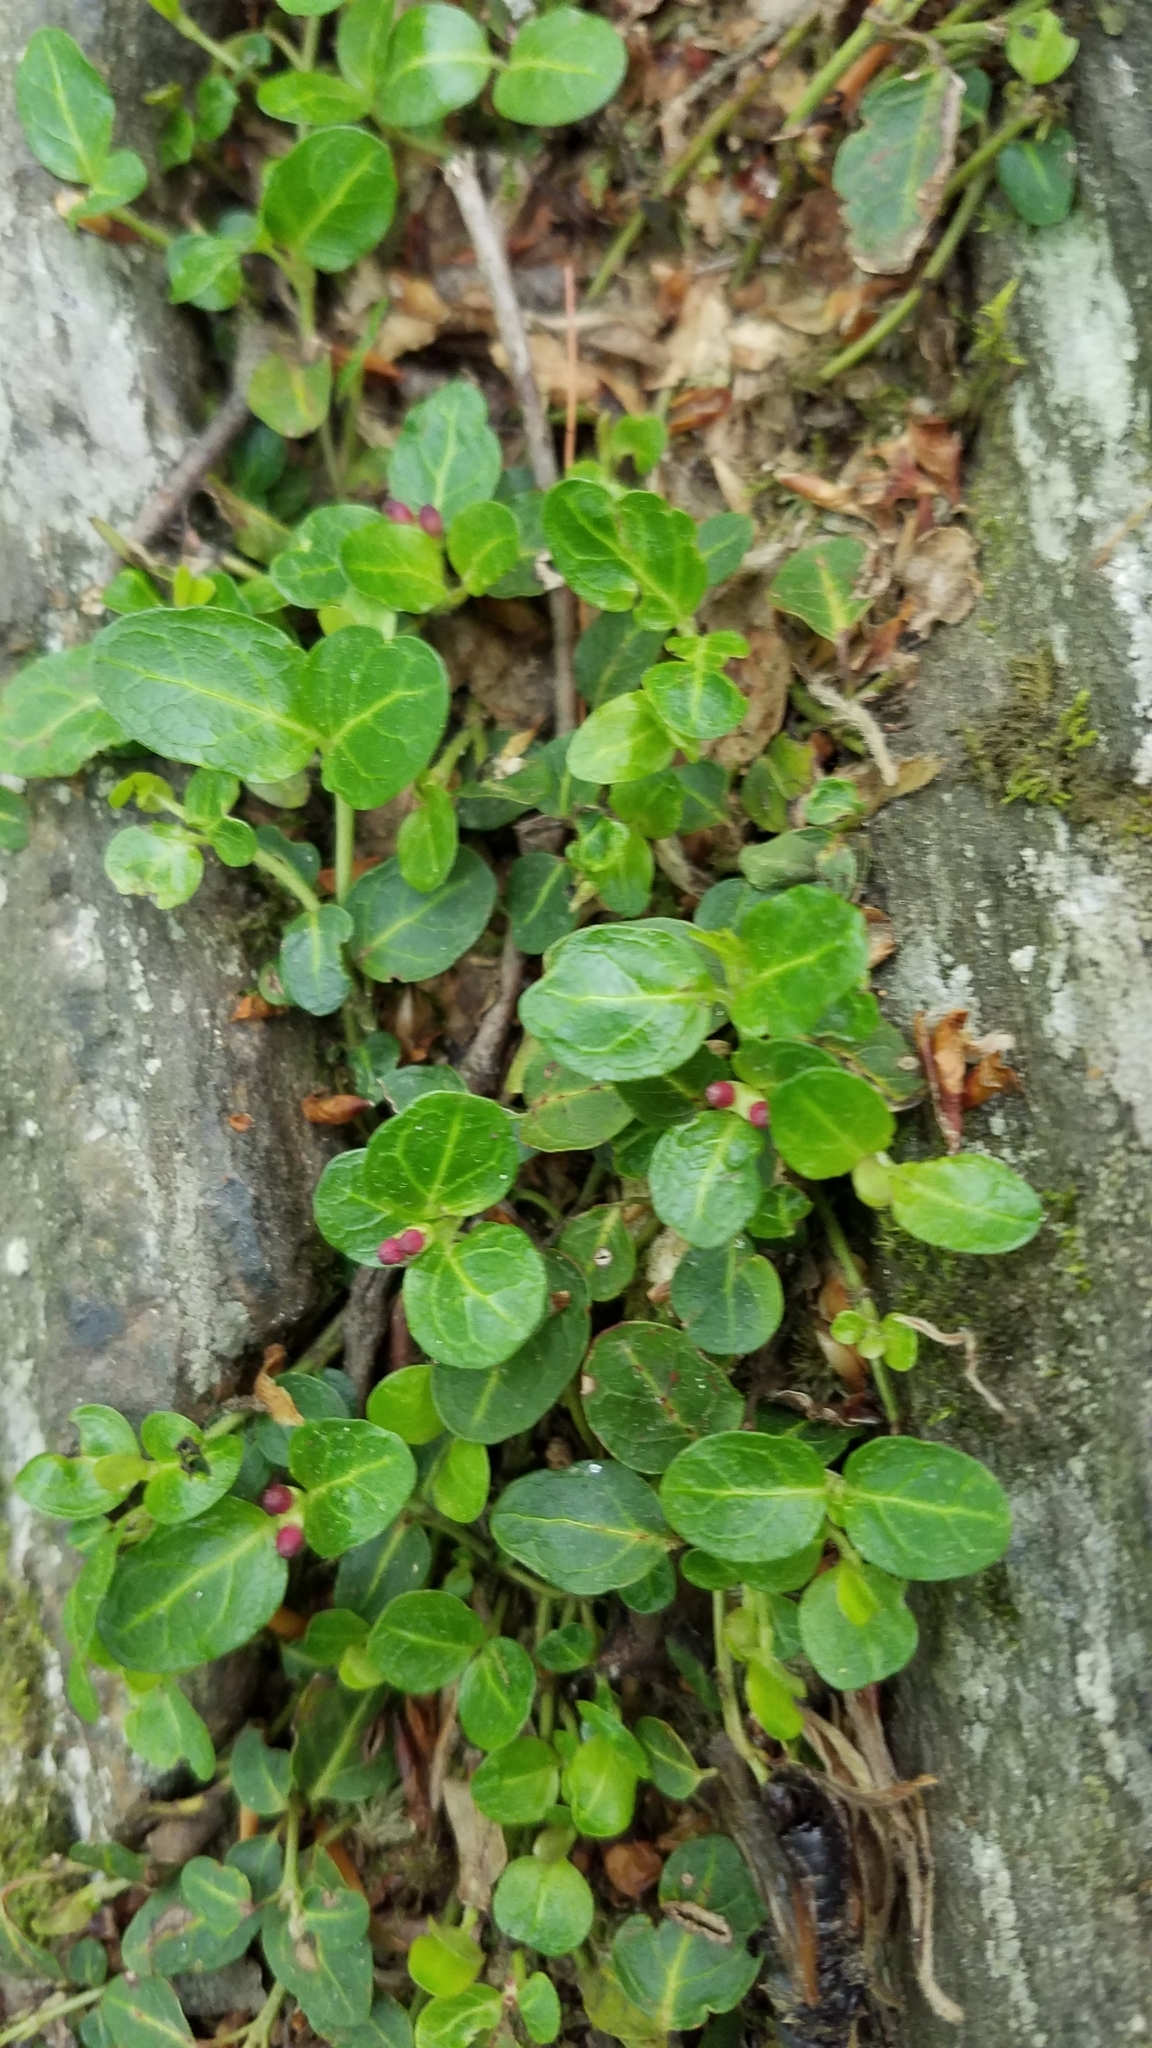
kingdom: Plantae
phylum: Tracheophyta
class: Magnoliopsida
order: Gentianales
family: Rubiaceae
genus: Mitchella
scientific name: Mitchella repens
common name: Partridge-berry
